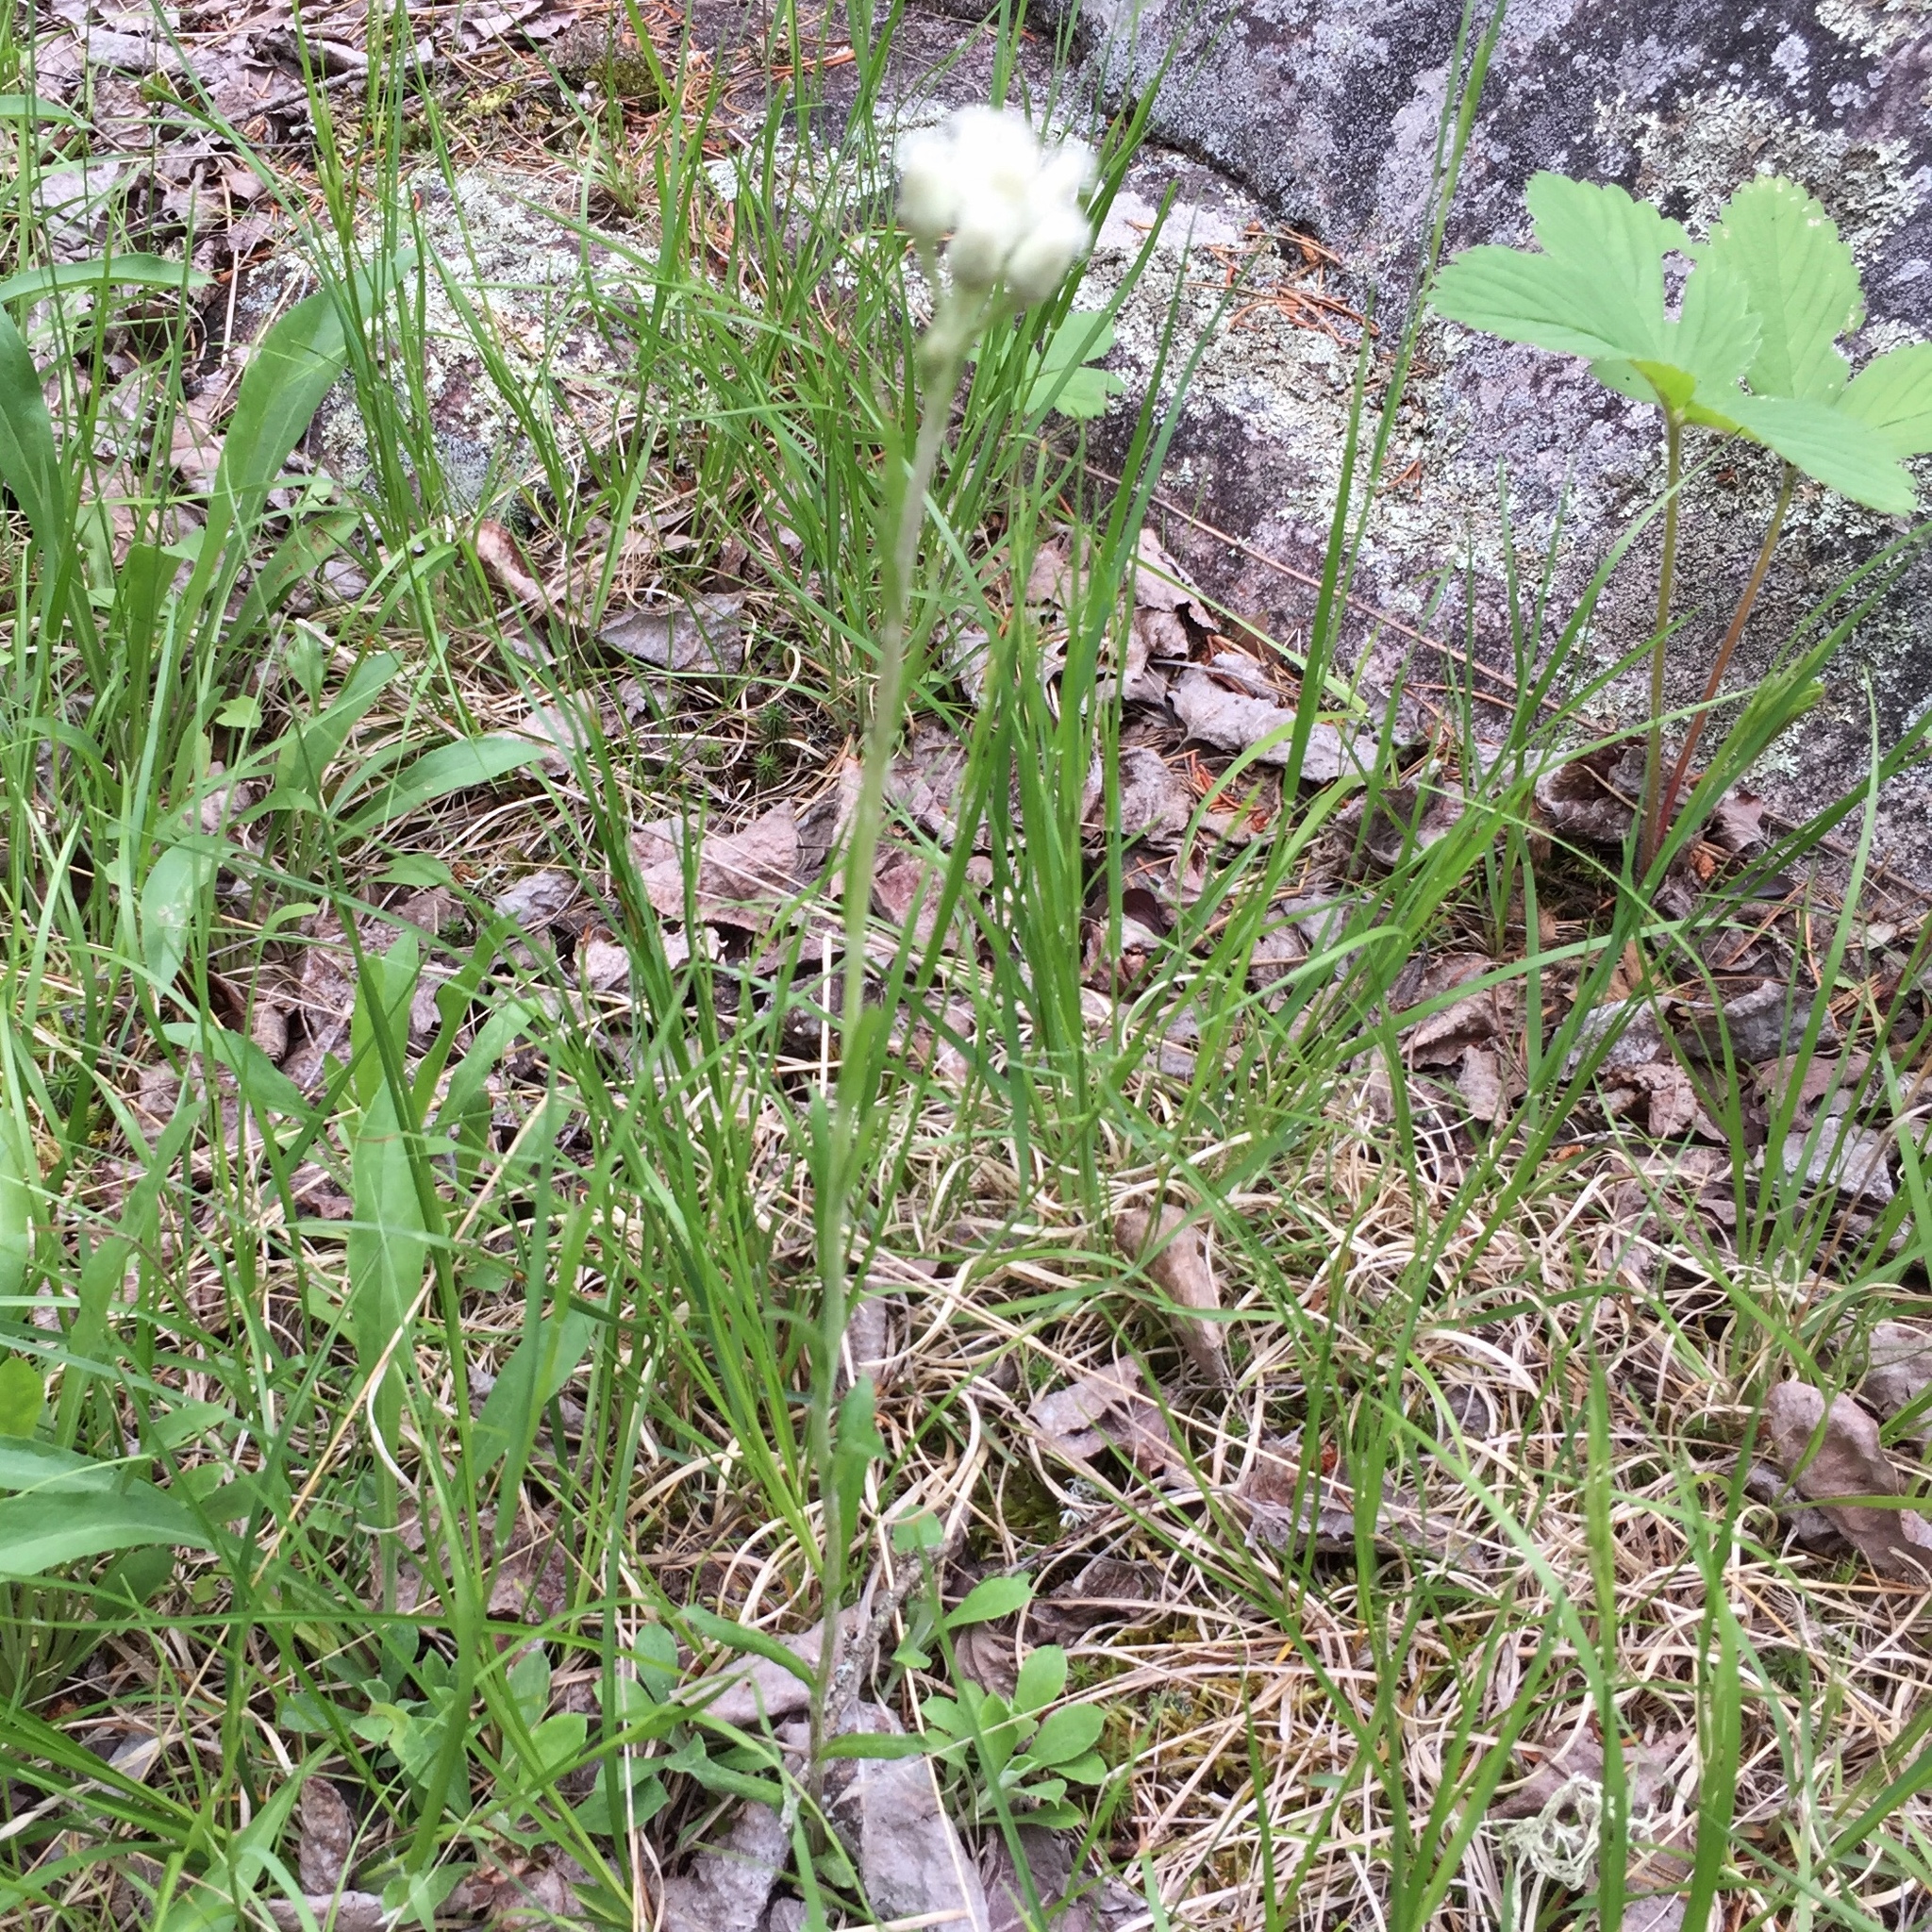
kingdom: Plantae
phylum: Tracheophyta
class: Magnoliopsida
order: Asterales
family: Asteraceae
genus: Antennaria
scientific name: Antennaria howellii
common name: Howell's pussytoes
